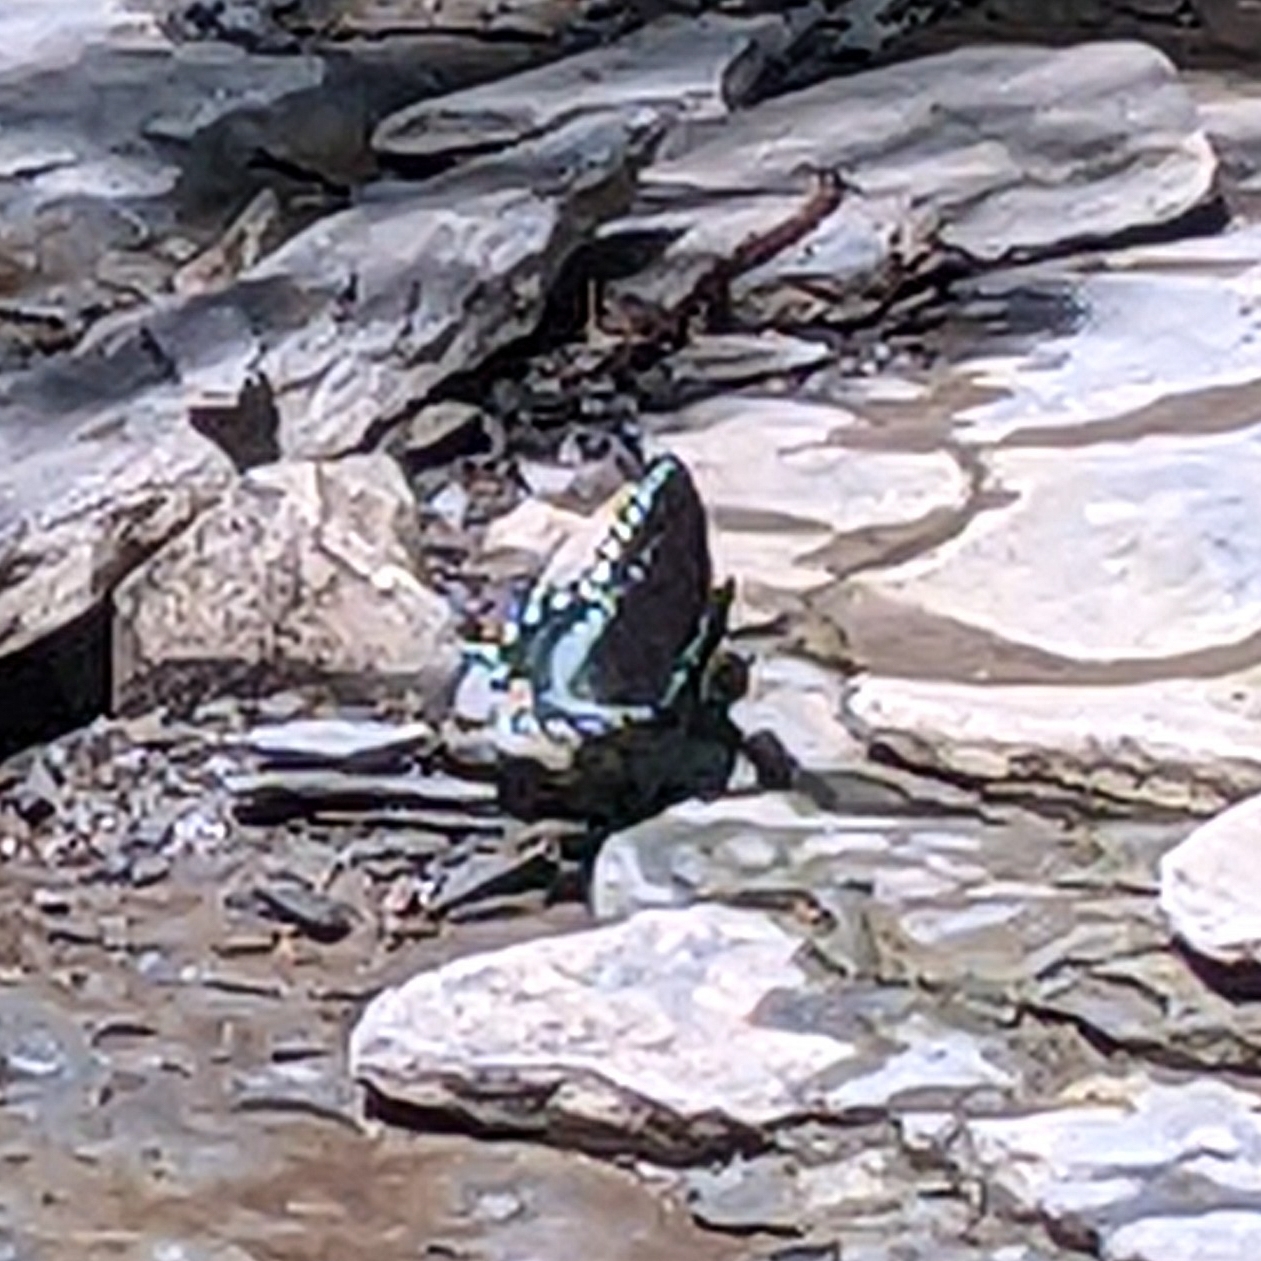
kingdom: Animalia
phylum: Arthropoda
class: Insecta
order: Lepidoptera
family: Papilionidae
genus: Papilio
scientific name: Papilio troilus
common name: Spicebush swallowtail
